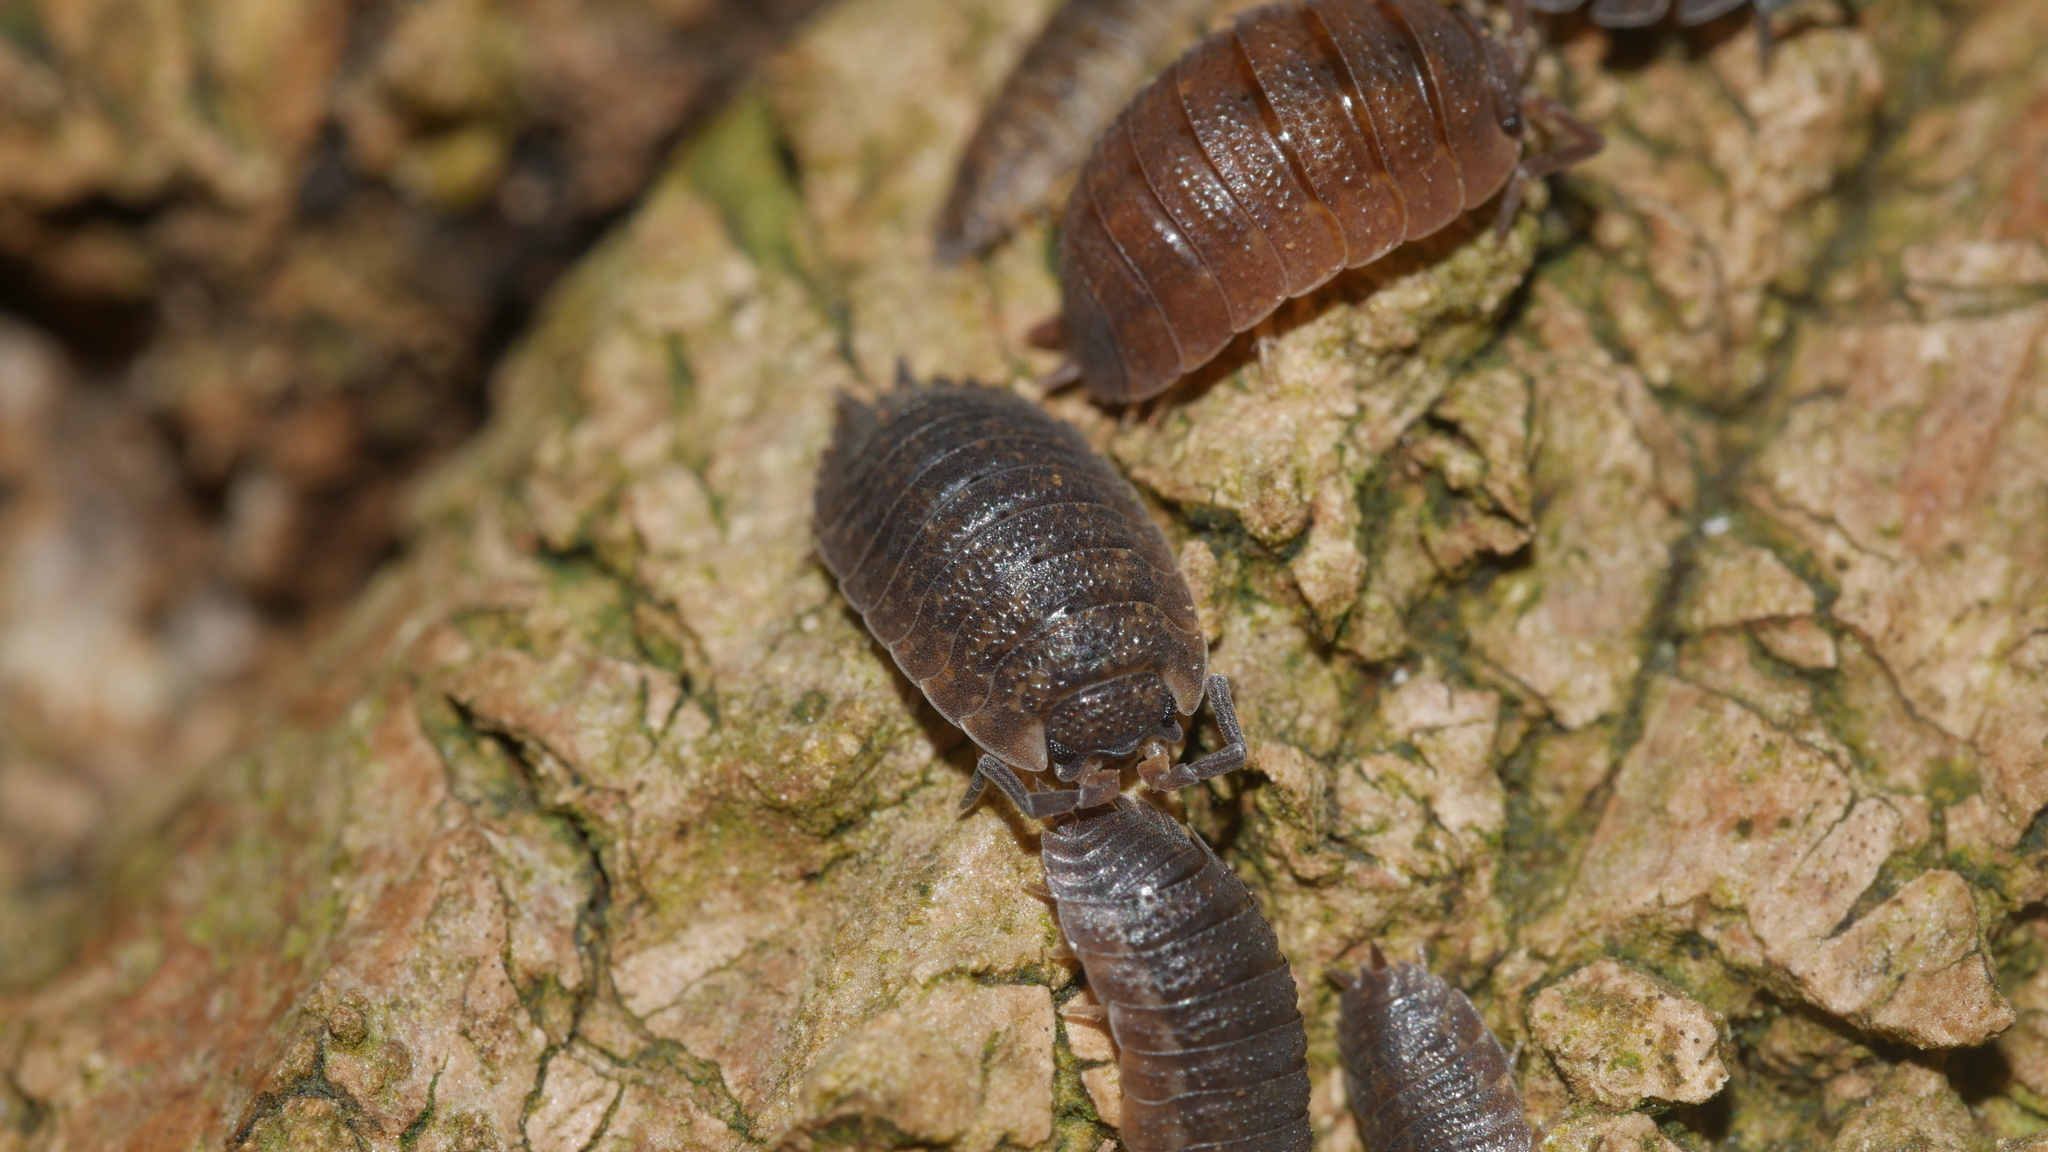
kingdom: Animalia
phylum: Arthropoda
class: Malacostraca
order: Isopoda
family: Porcellionidae
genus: Porcellio
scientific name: Porcellio scaber
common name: Common rough woodlouse
